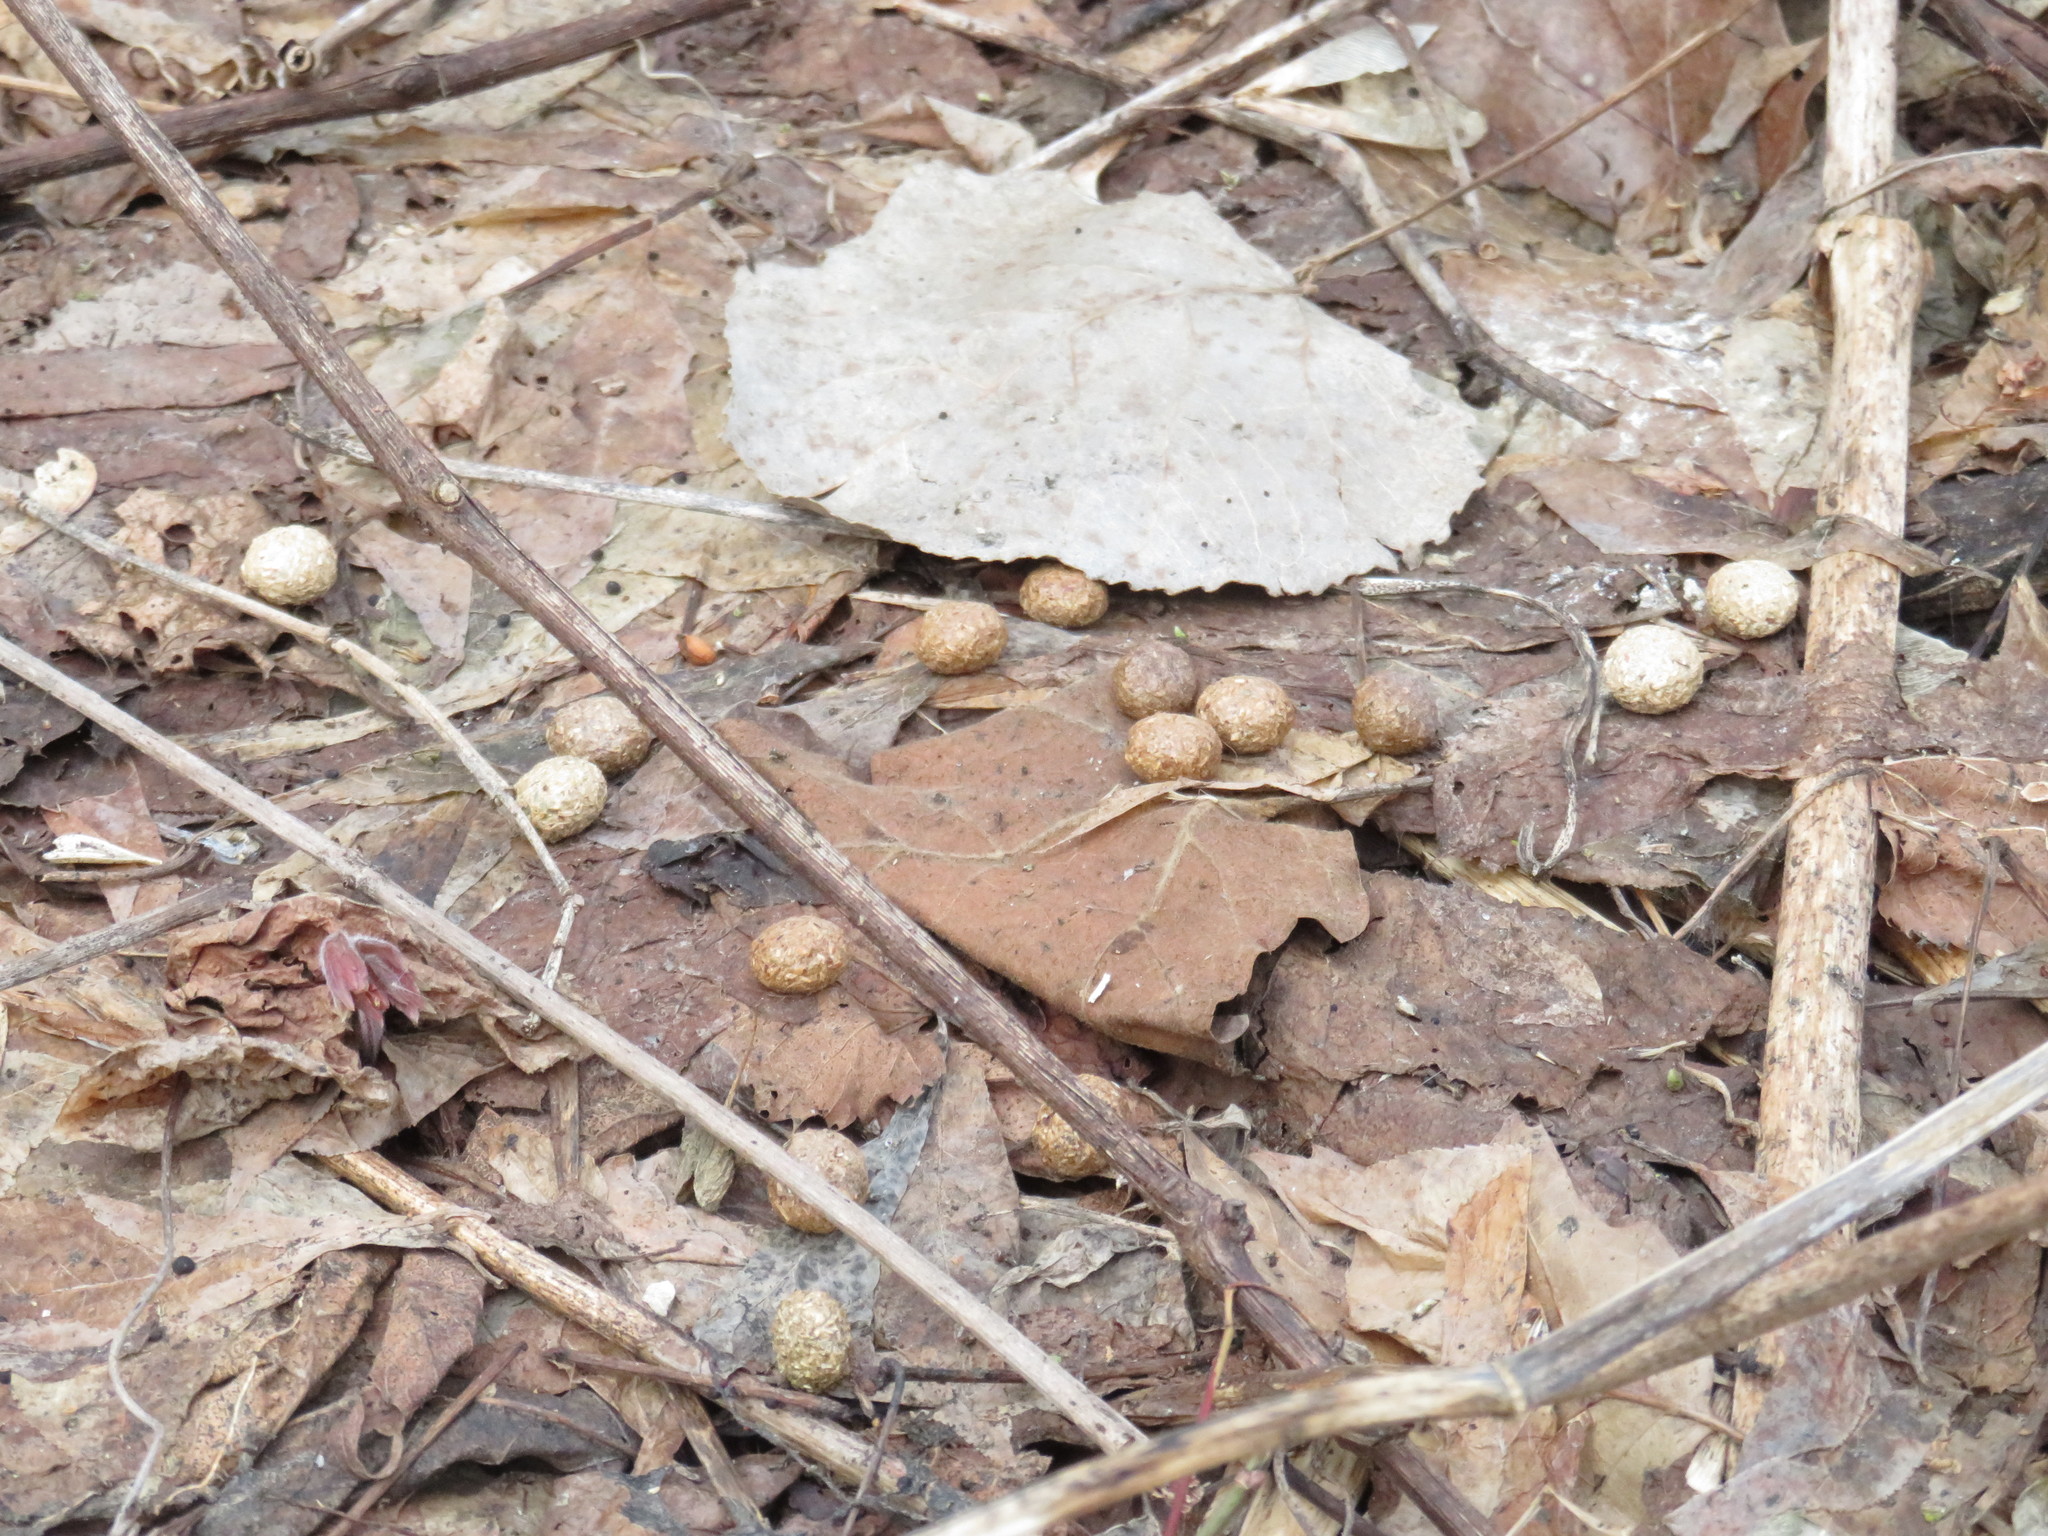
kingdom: Animalia
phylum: Chordata
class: Mammalia
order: Lagomorpha
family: Leporidae
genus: Sylvilagus
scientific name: Sylvilagus floridanus
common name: Eastern cottontail
